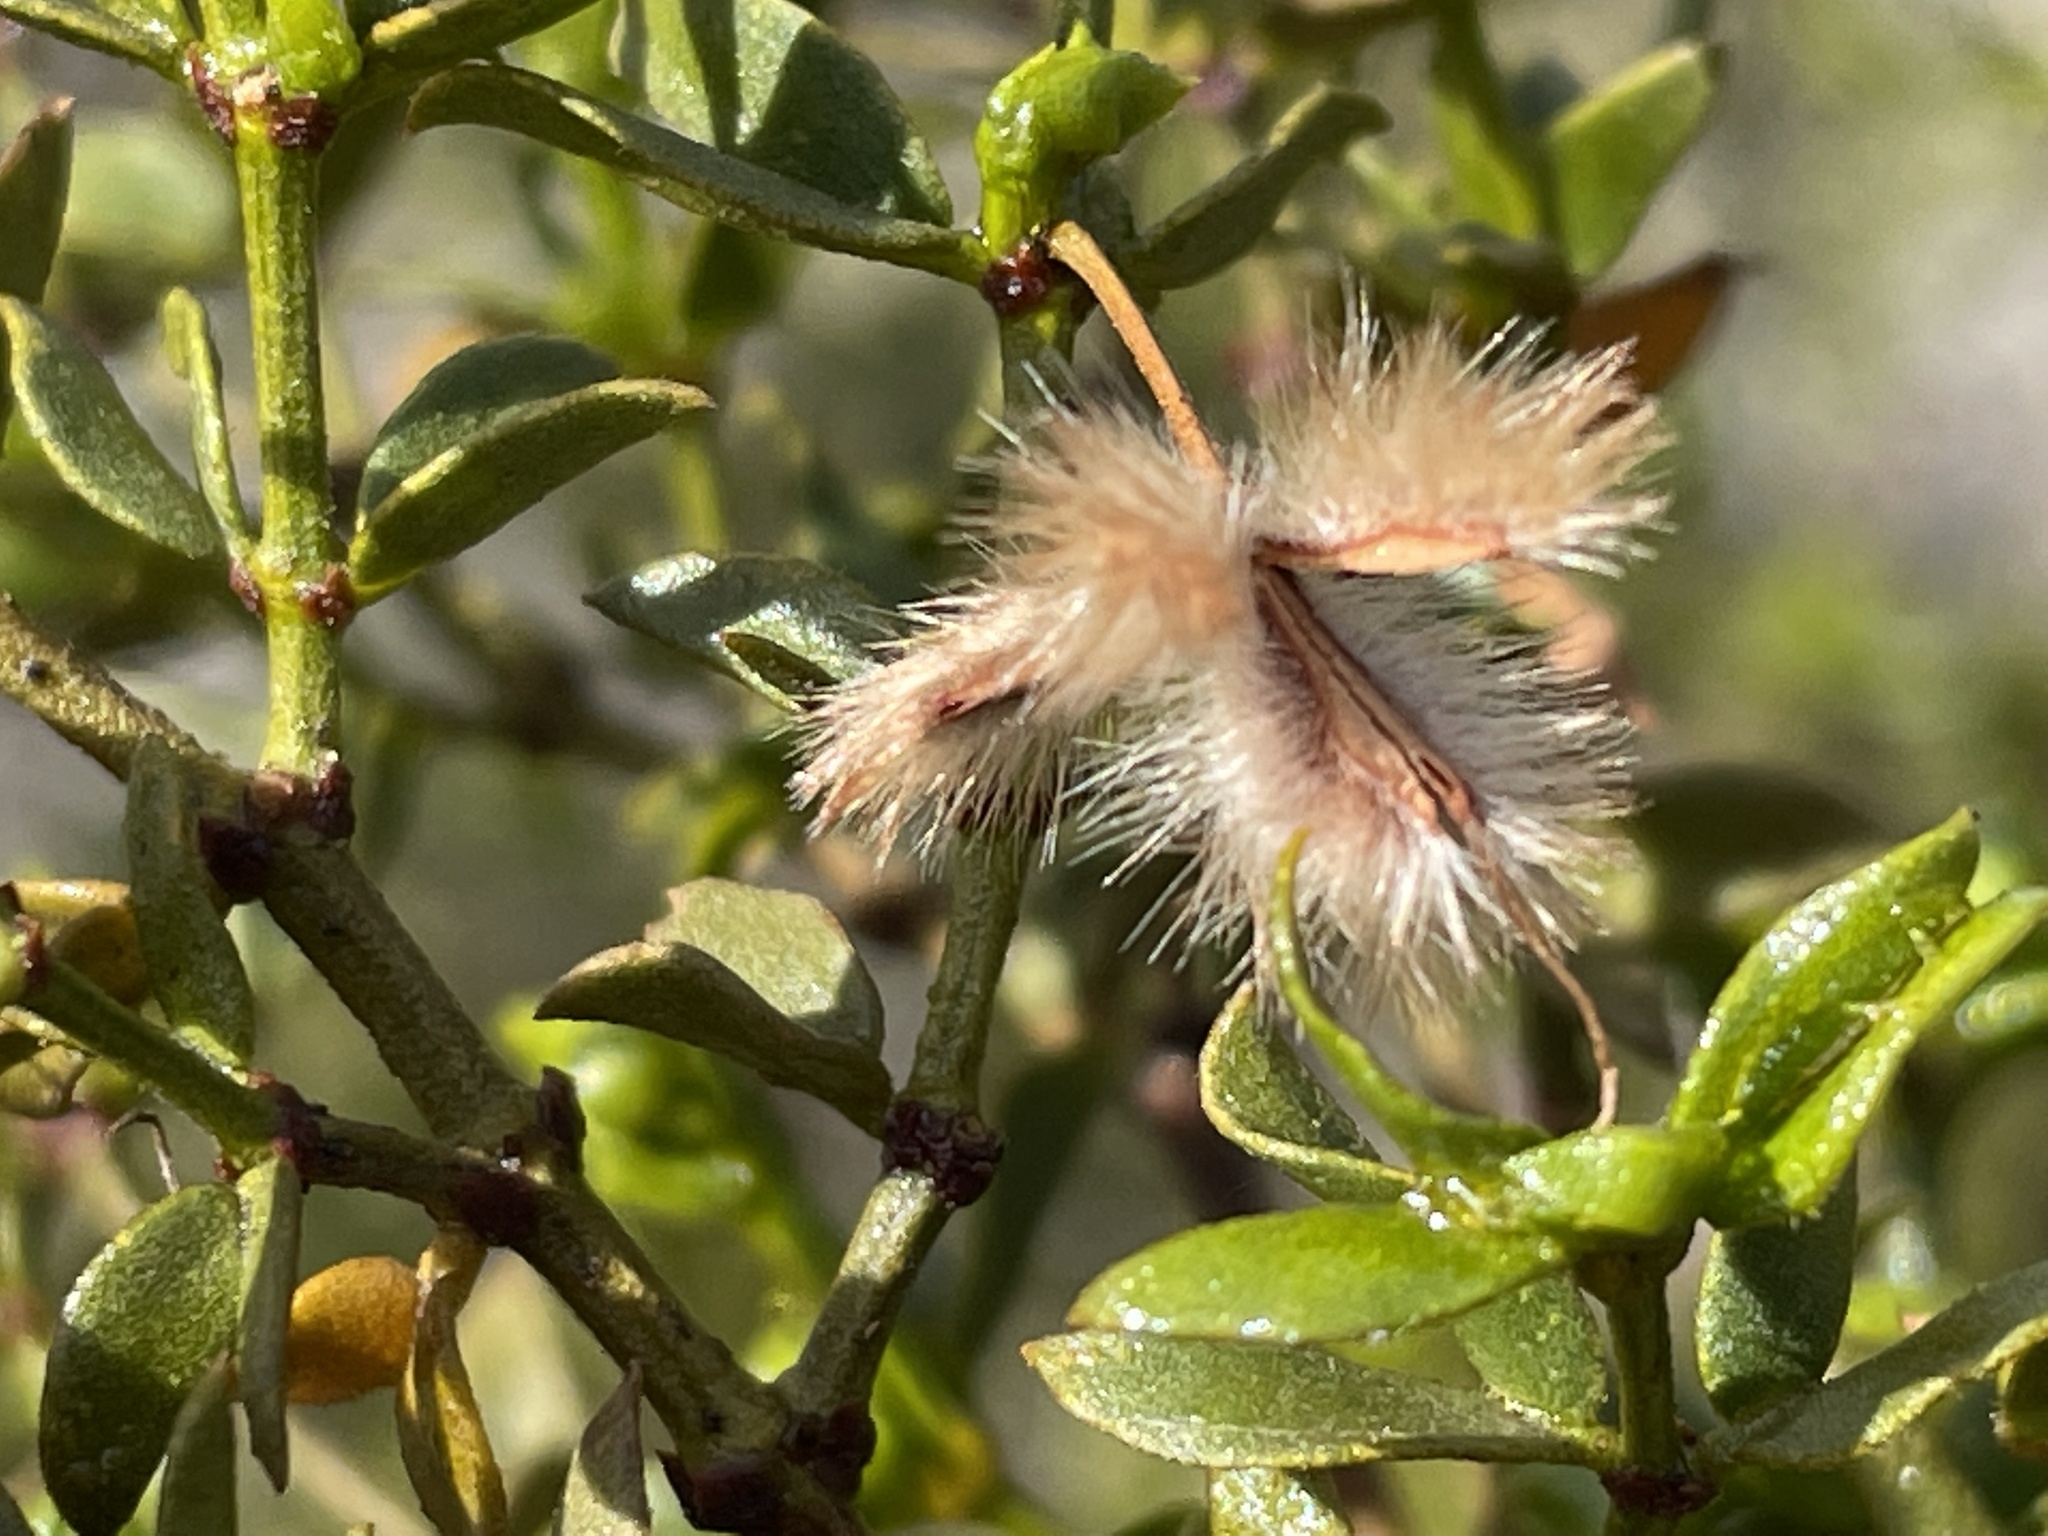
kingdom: Plantae
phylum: Tracheophyta
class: Magnoliopsida
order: Zygophyllales
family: Zygophyllaceae
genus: Larrea
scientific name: Larrea tridentata
